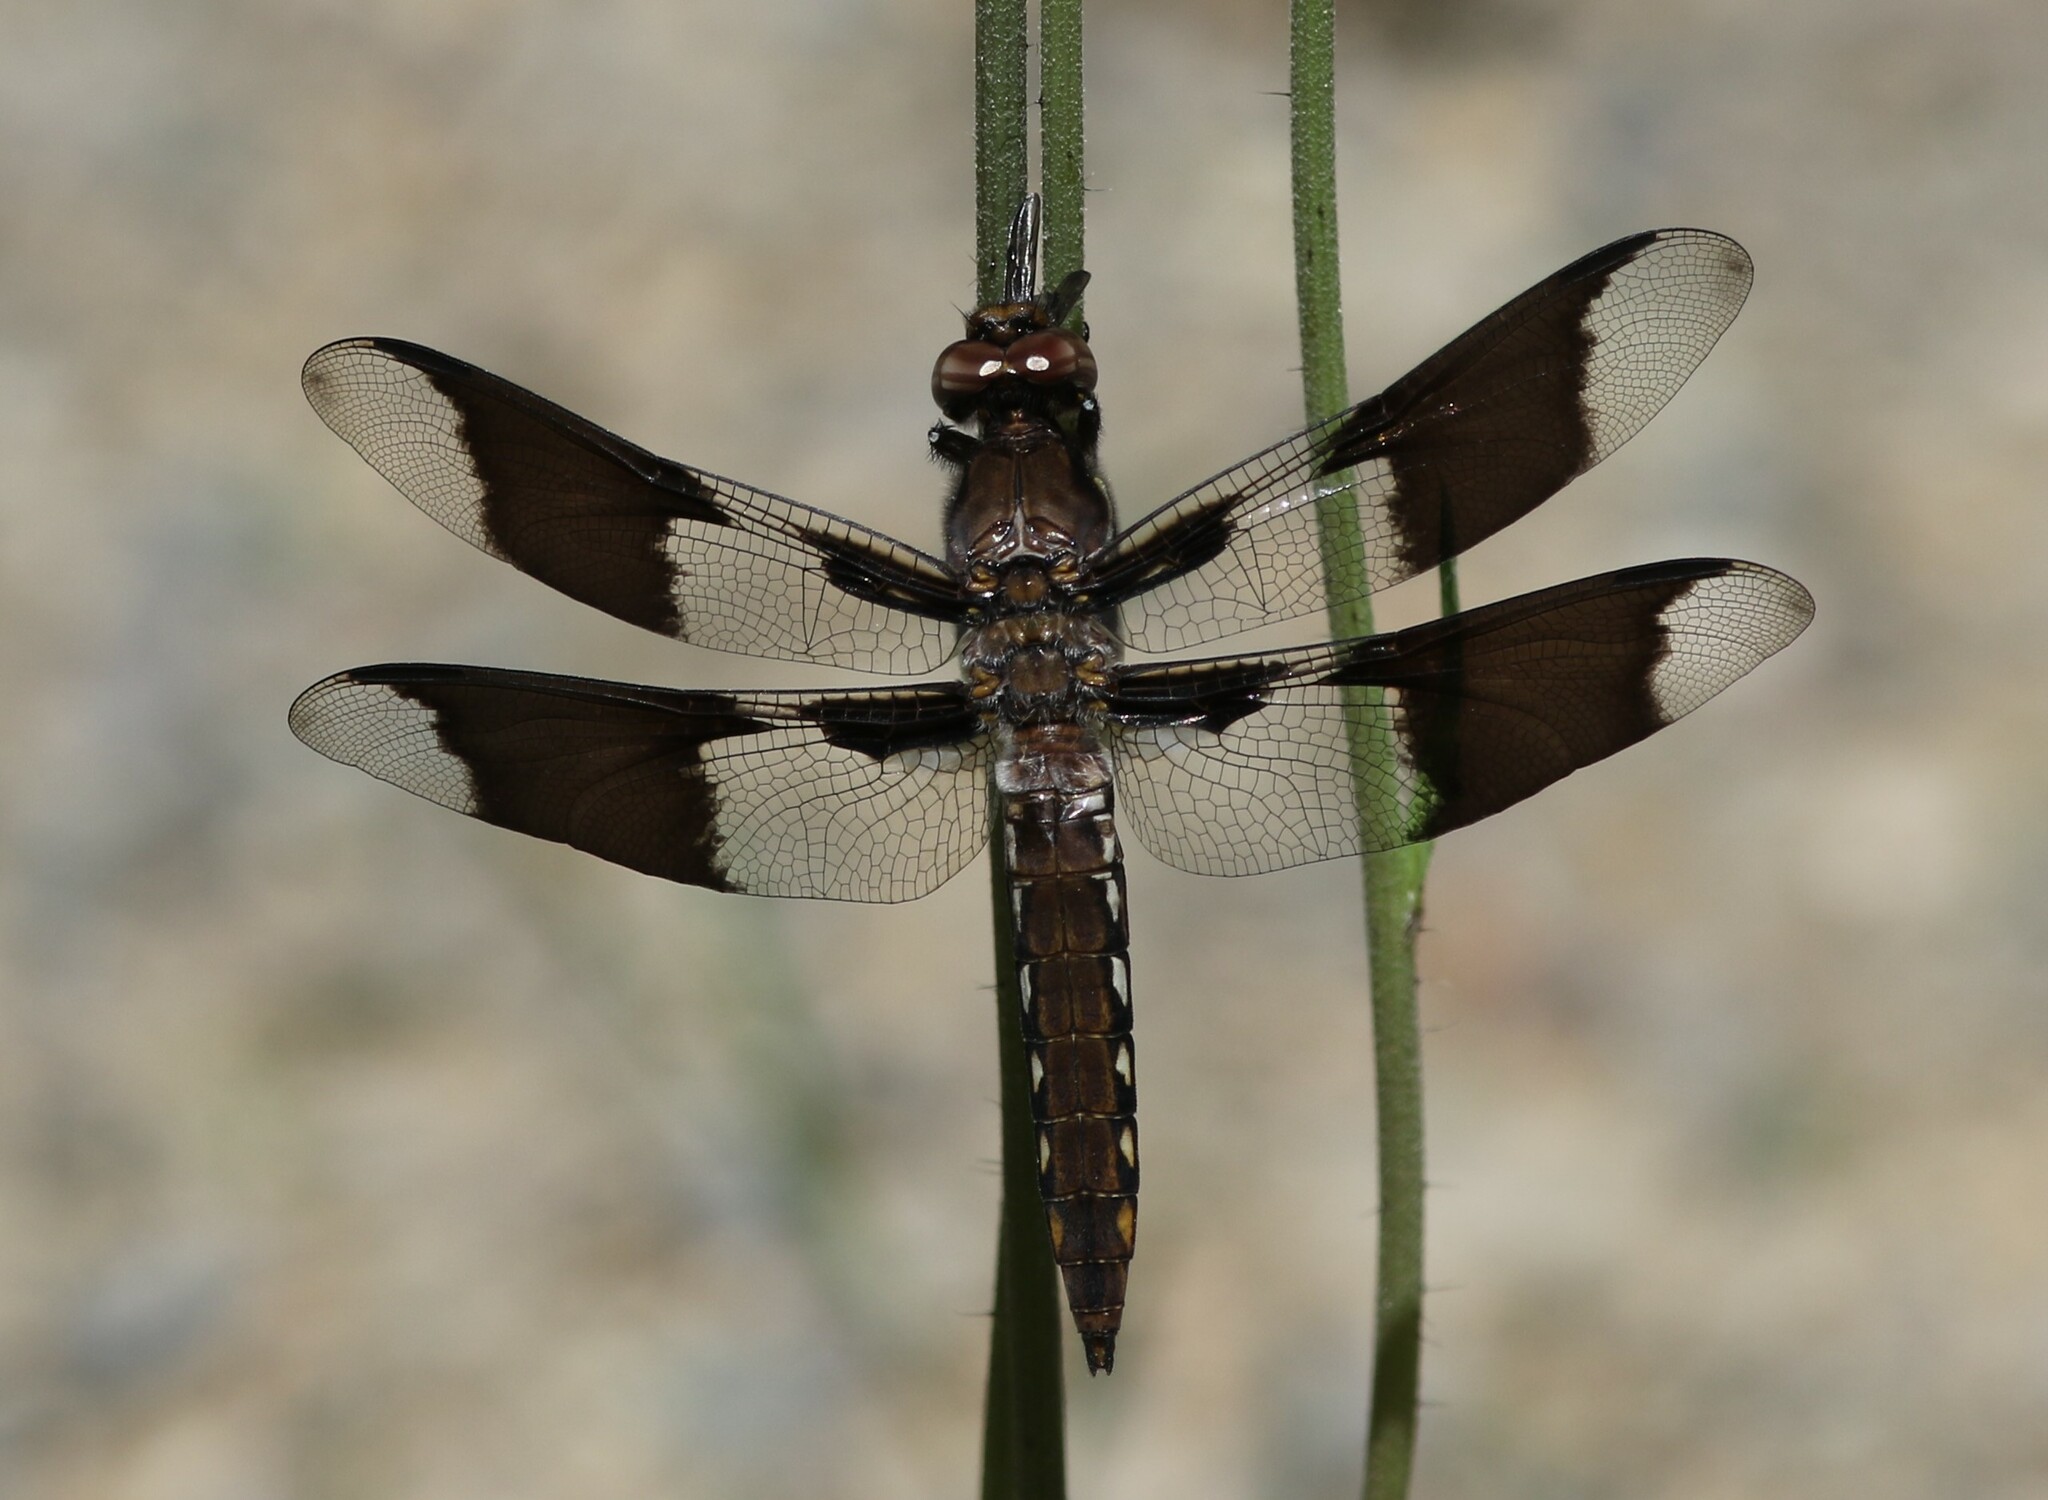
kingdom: Animalia
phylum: Arthropoda
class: Insecta
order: Odonata
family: Libellulidae
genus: Plathemis
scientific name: Plathemis lydia
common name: Common whitetail
